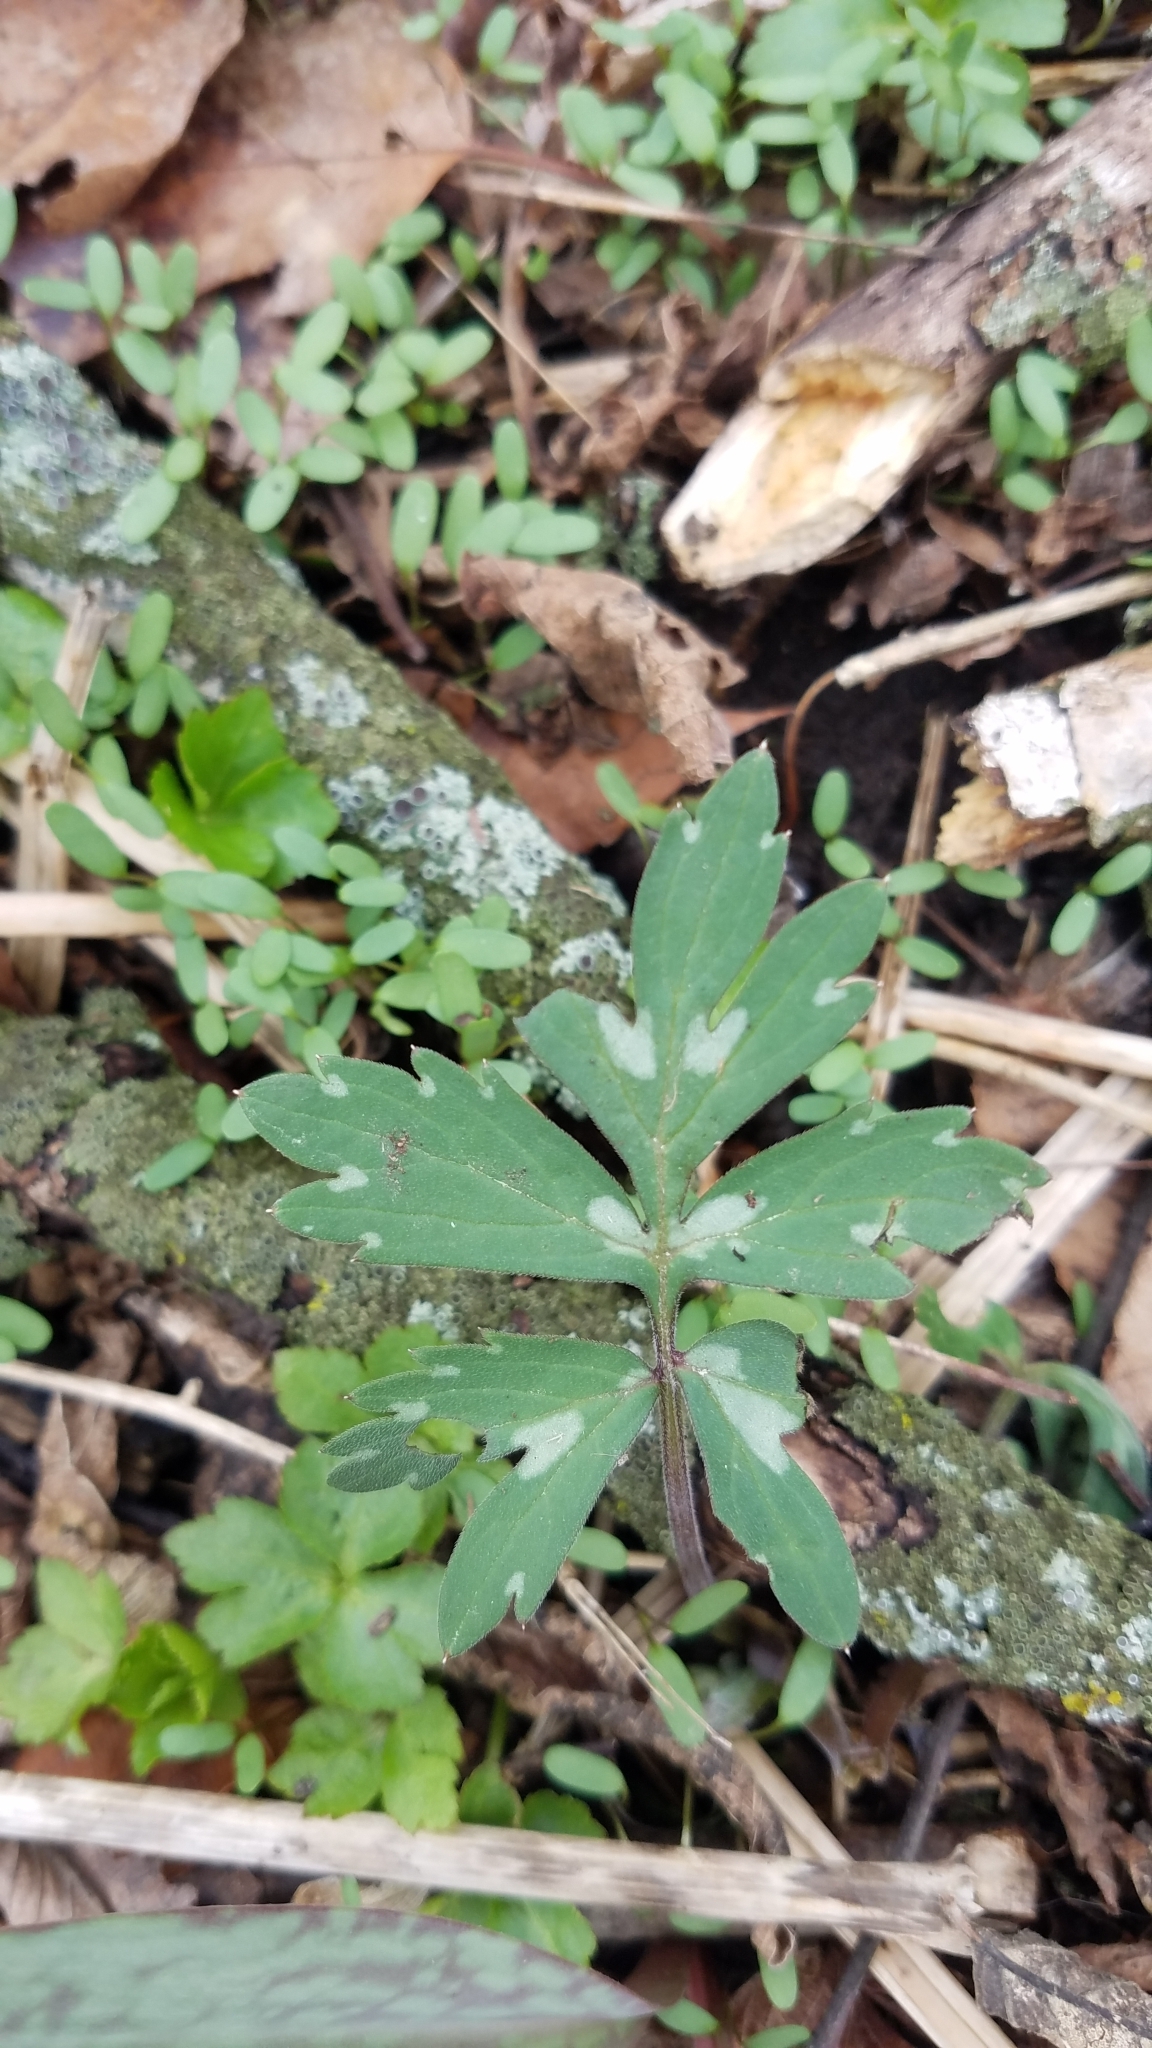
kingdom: Plantae
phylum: Tracheophyta
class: Magnoliopsida
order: Boraginales
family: Hydrophyllaceae
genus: Hydrophyllum
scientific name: Hydrophyllum virginianum
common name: Virginia waterleaf
